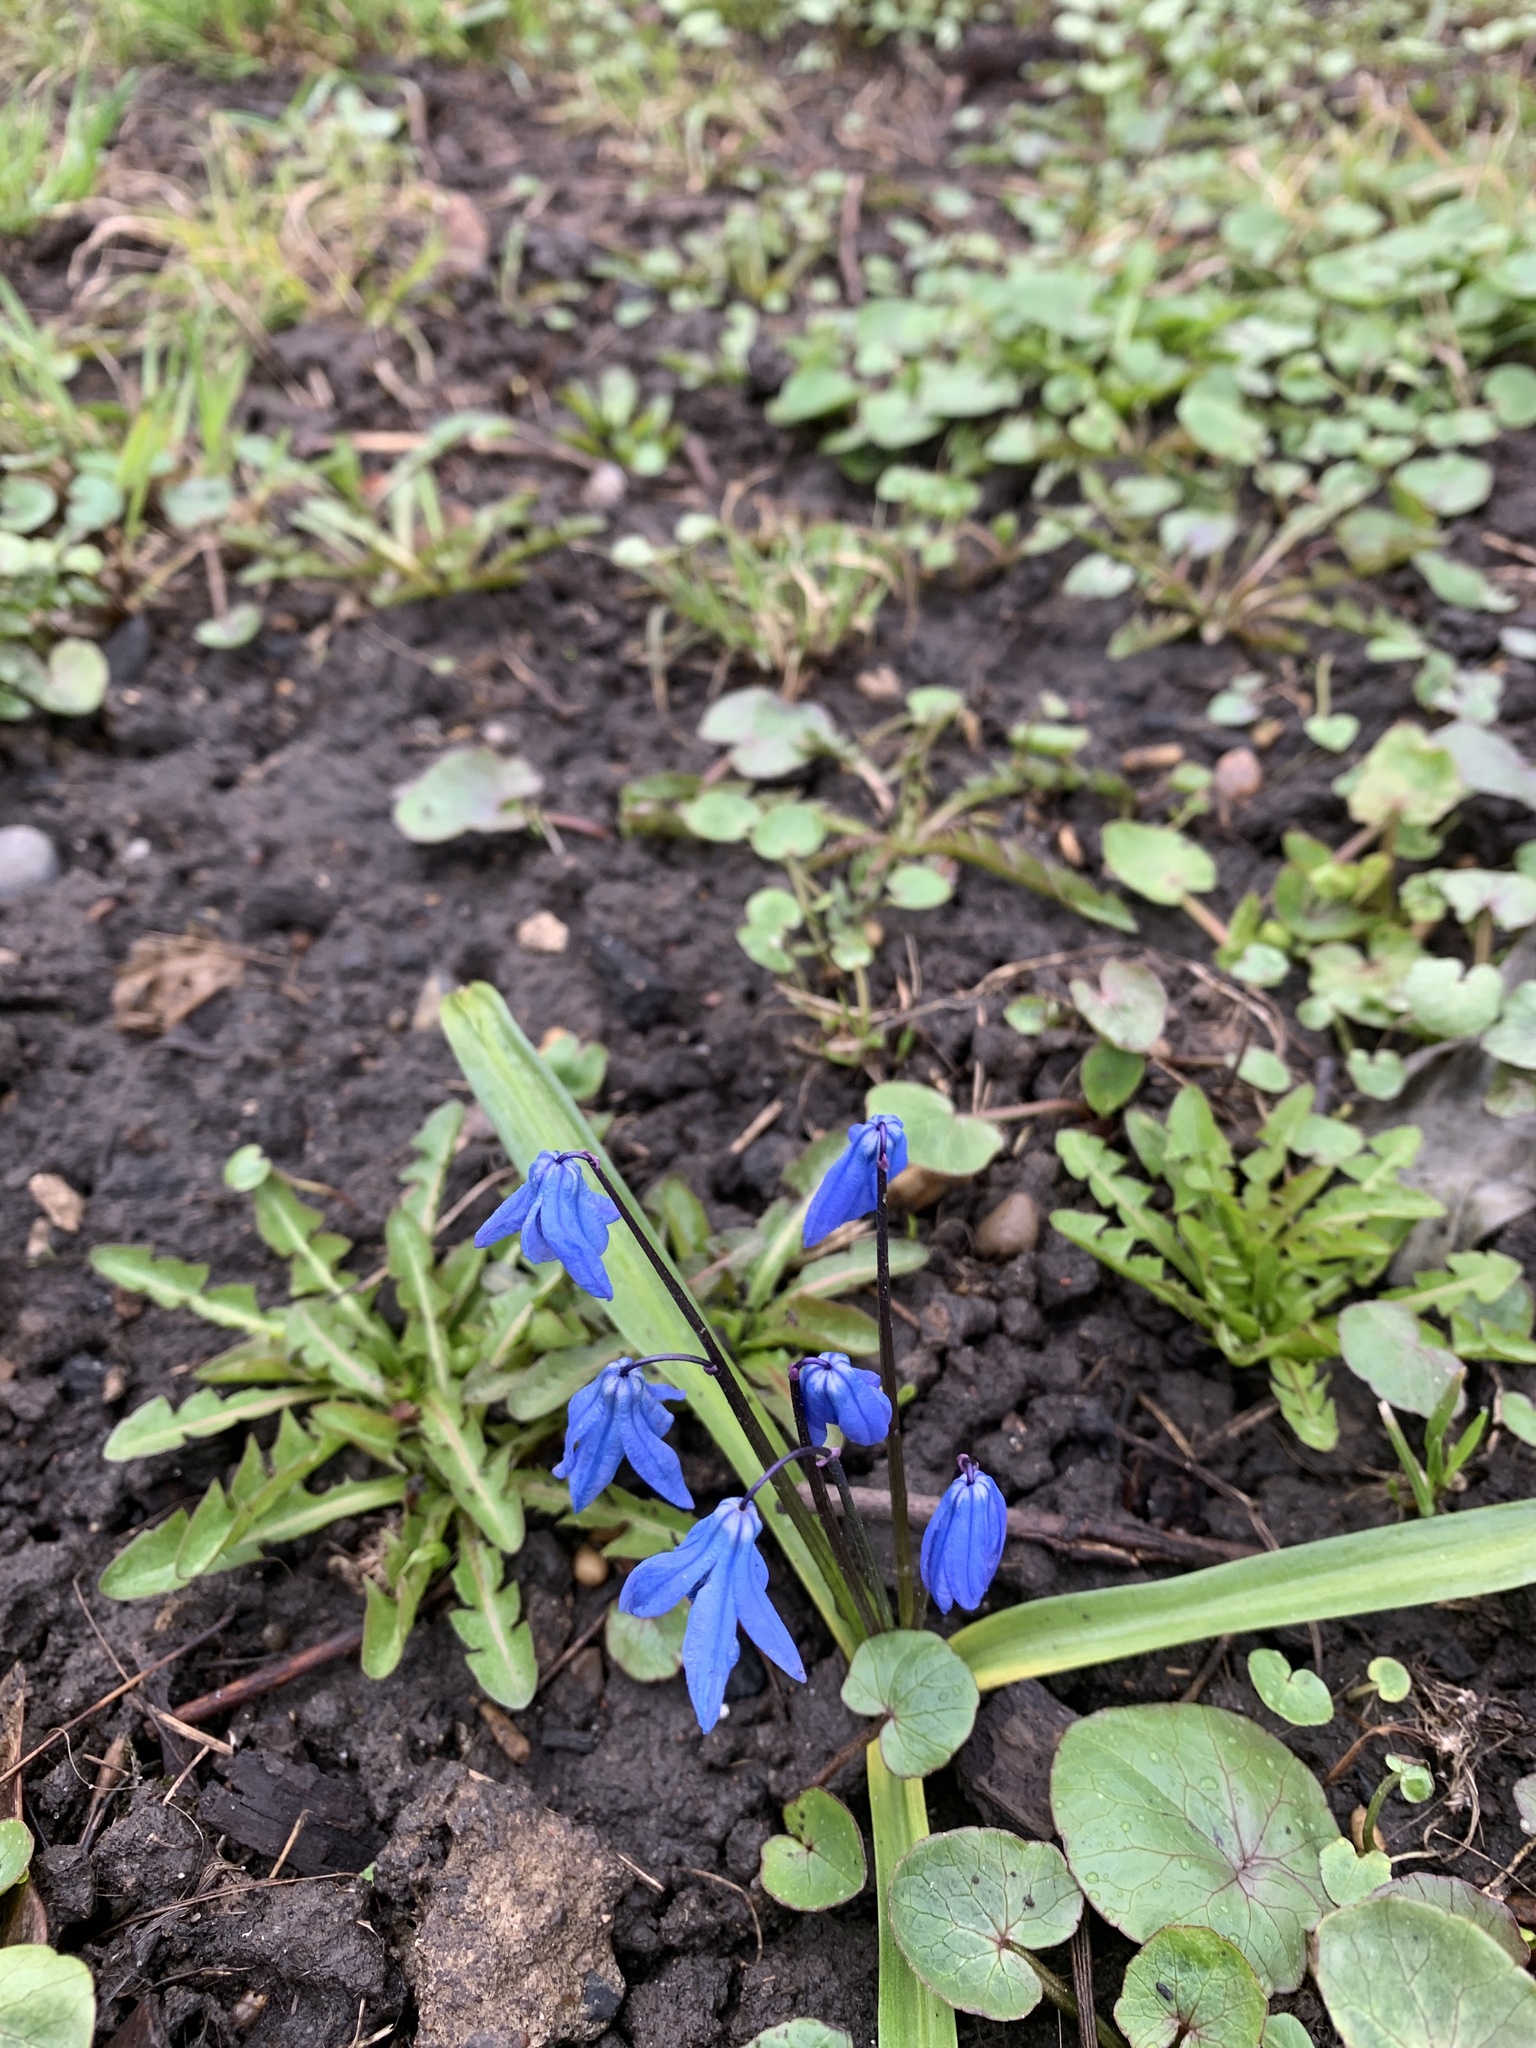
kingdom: Plantae
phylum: Tracheophyta
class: Liliopsida
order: Asparagales
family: Asparagaceae
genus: Scilla
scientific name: Scilla siberica
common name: Siberian squill
